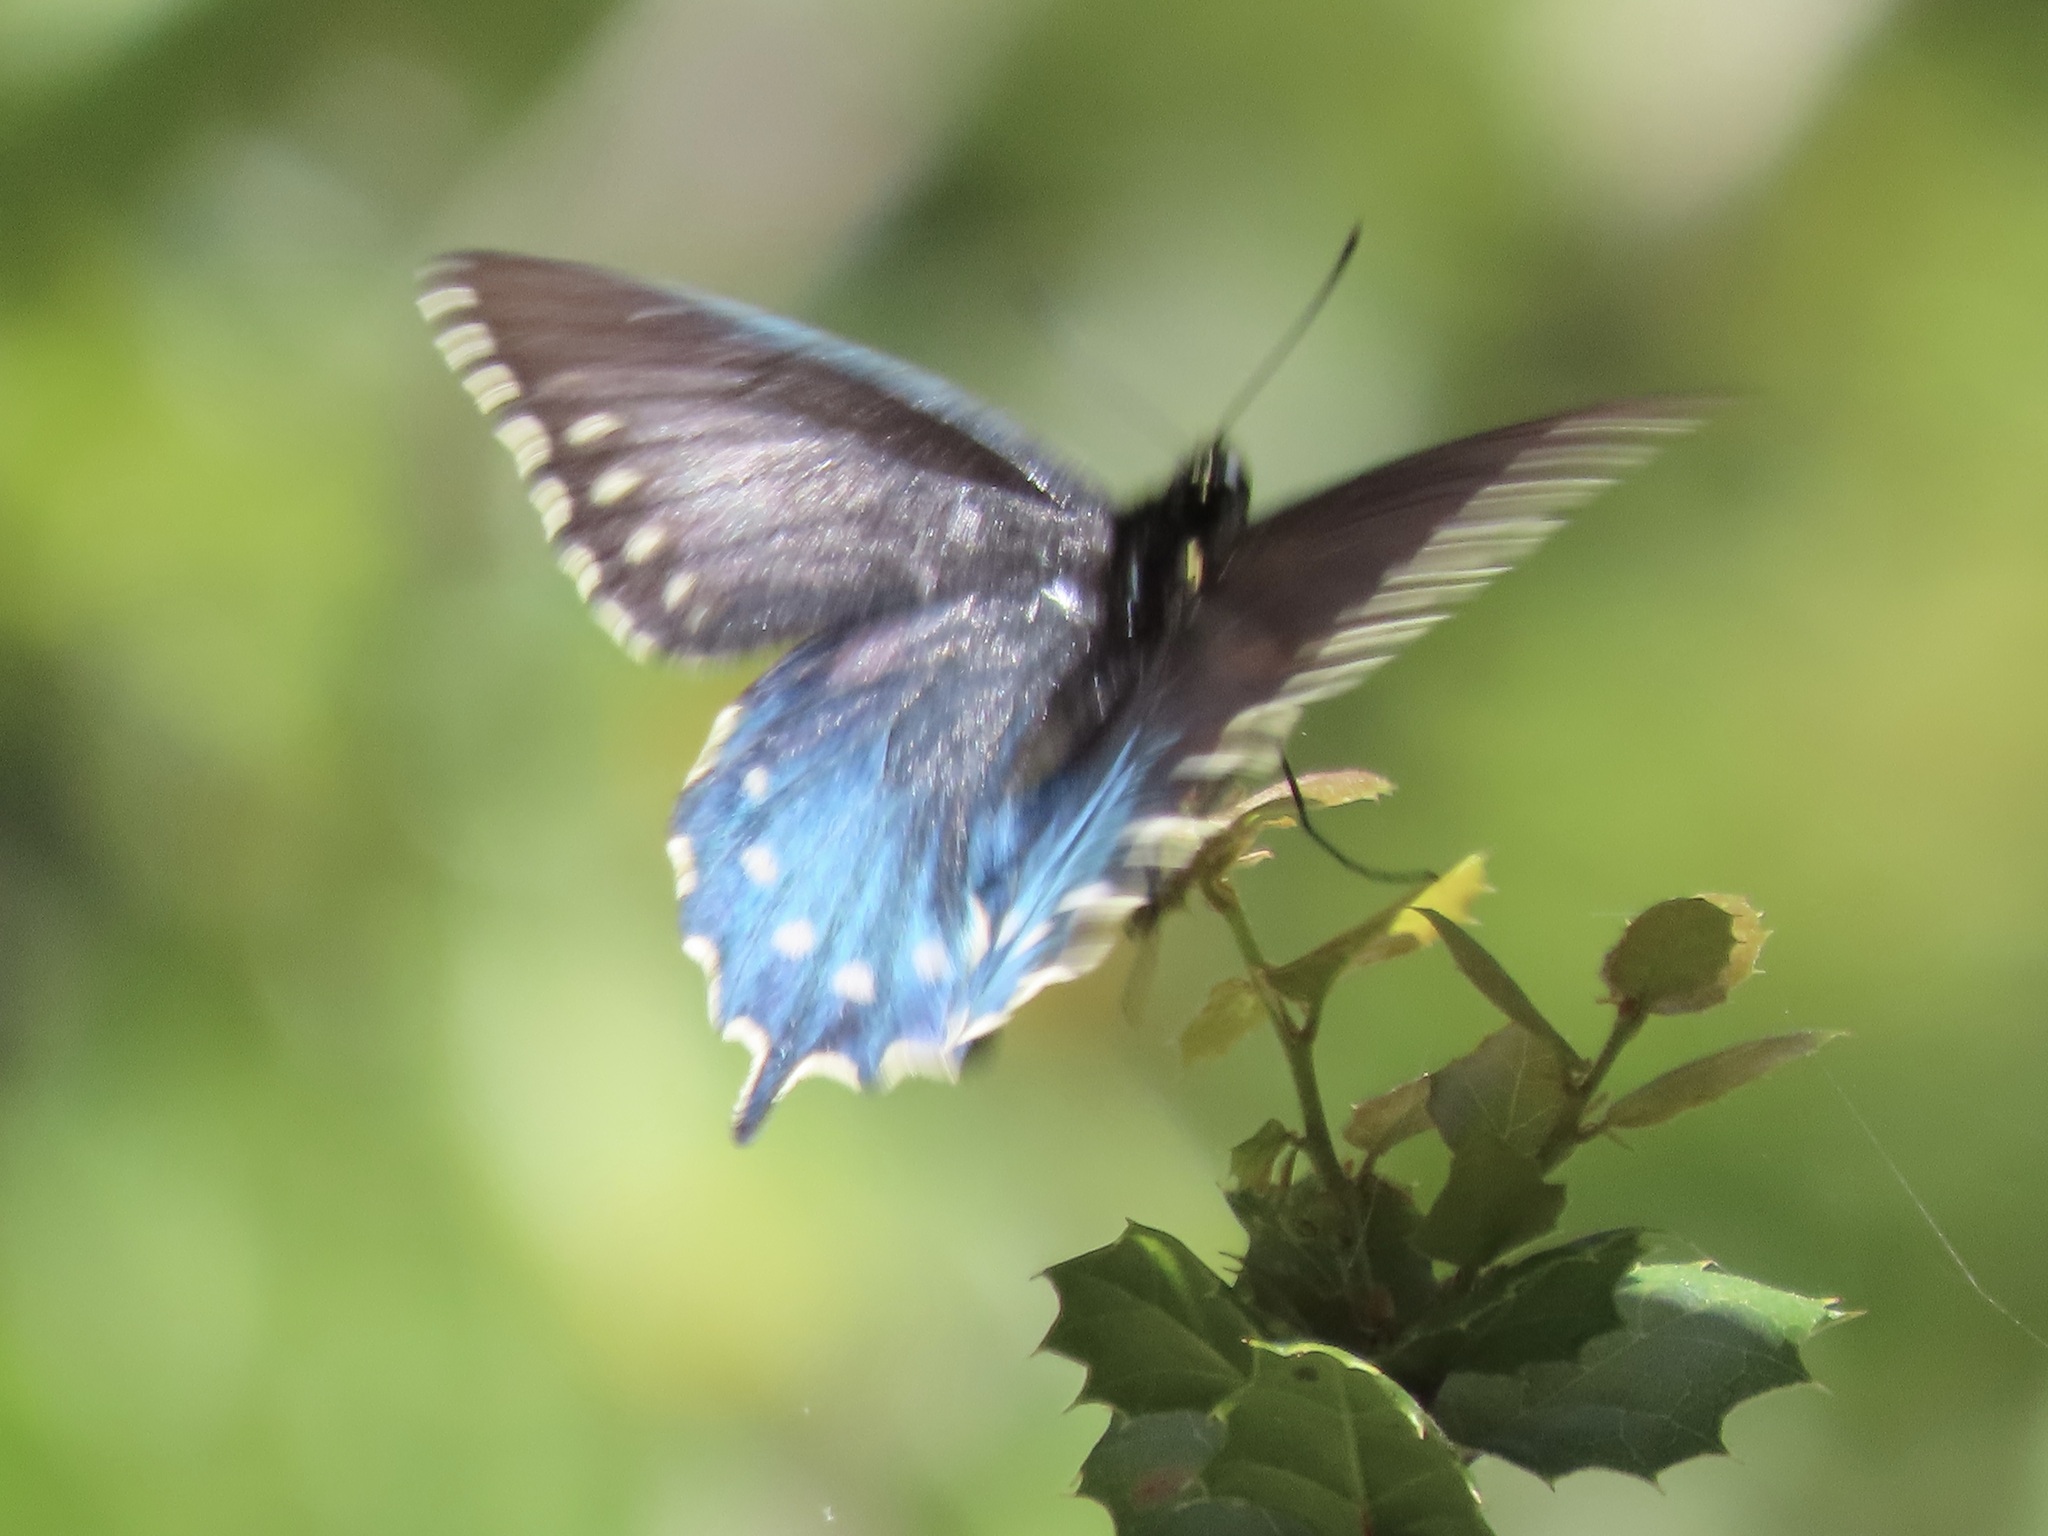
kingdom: Animalia
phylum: Arthropoda
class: Insecta
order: Lepidoptera
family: Papilionidae
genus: Battus
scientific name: Battus philenor
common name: Pipevine swallowtail
